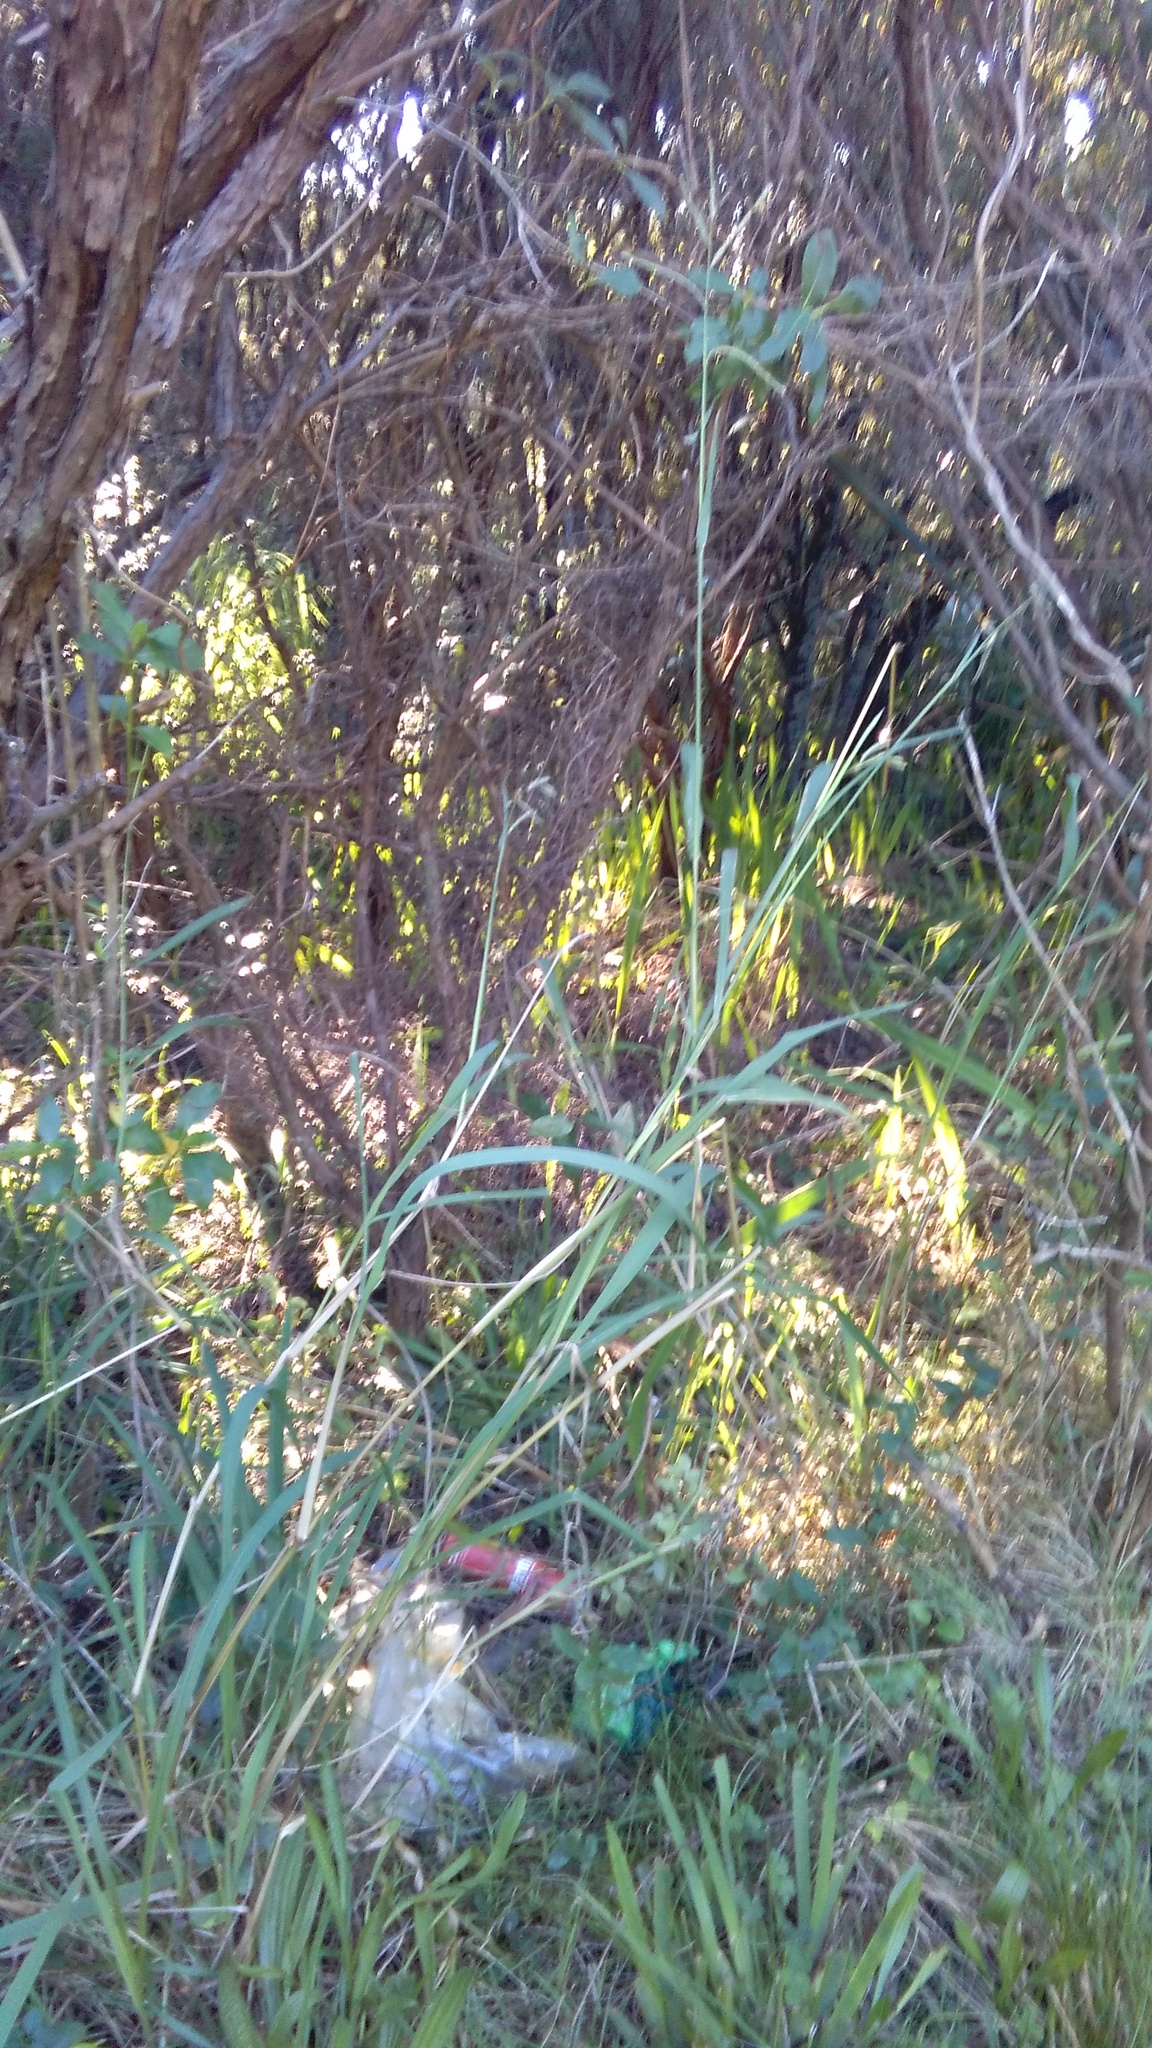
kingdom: Plantae
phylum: Tracheophyta
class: Liliopsida
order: Poales
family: Poaceae
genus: Paspalum
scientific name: Paspalum urvillei
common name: Vasey's grass
